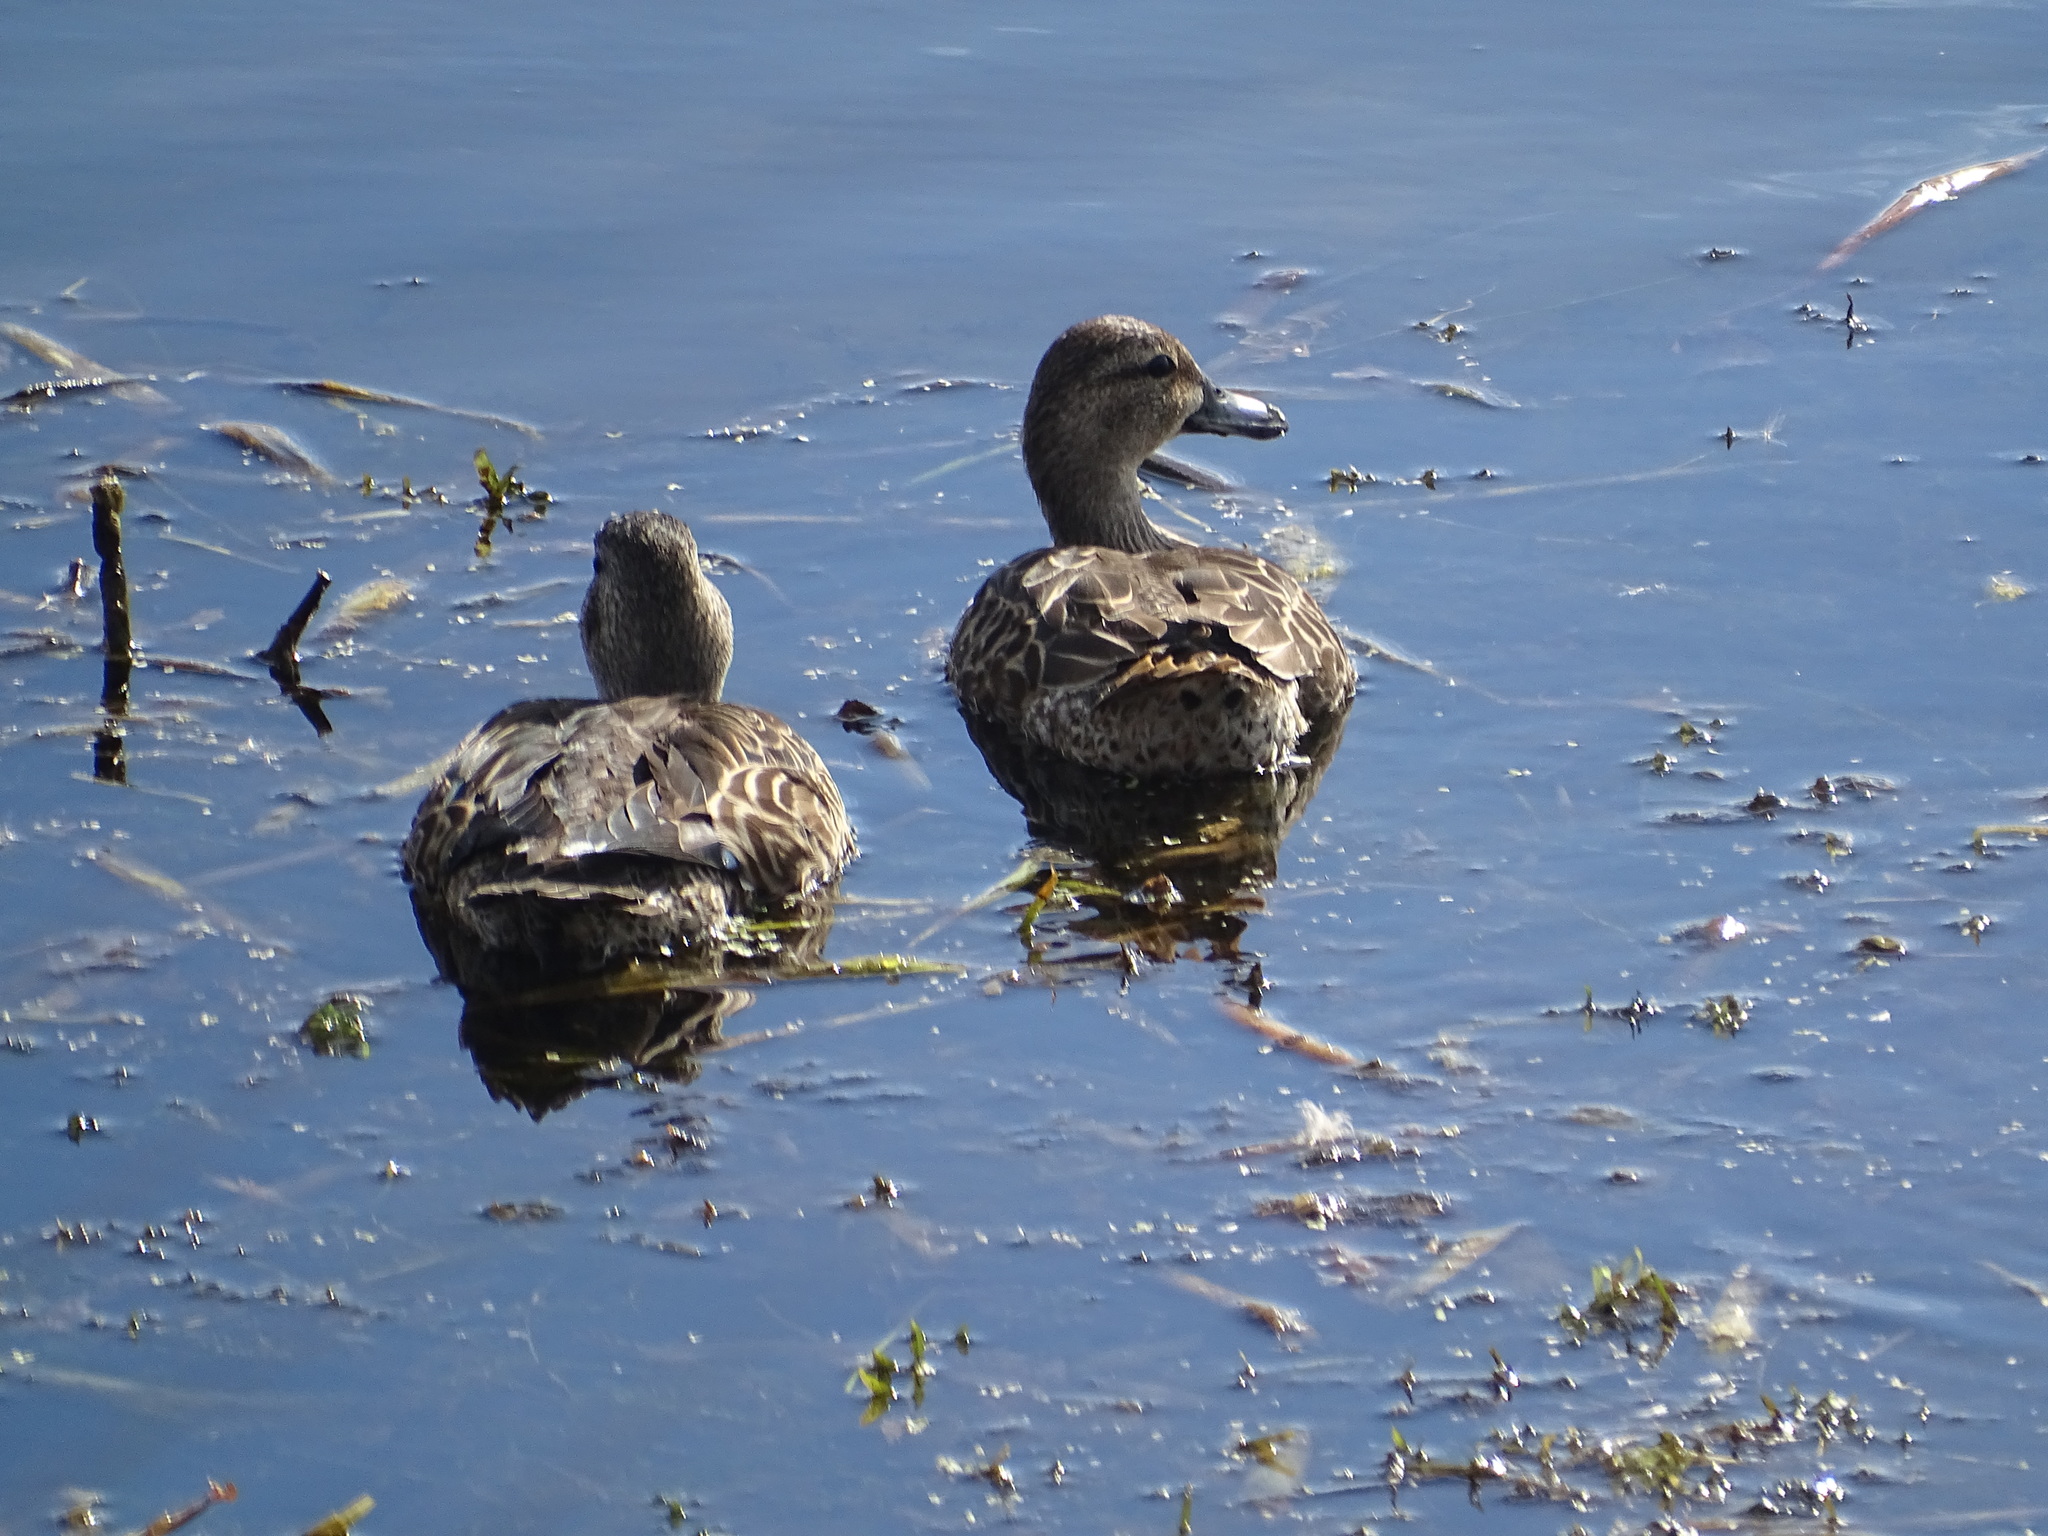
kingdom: Animalia
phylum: Chordata
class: Aves
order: Anseriformes
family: Anatidae
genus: Spatula
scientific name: Spatula discors
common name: Blue-winged teal
